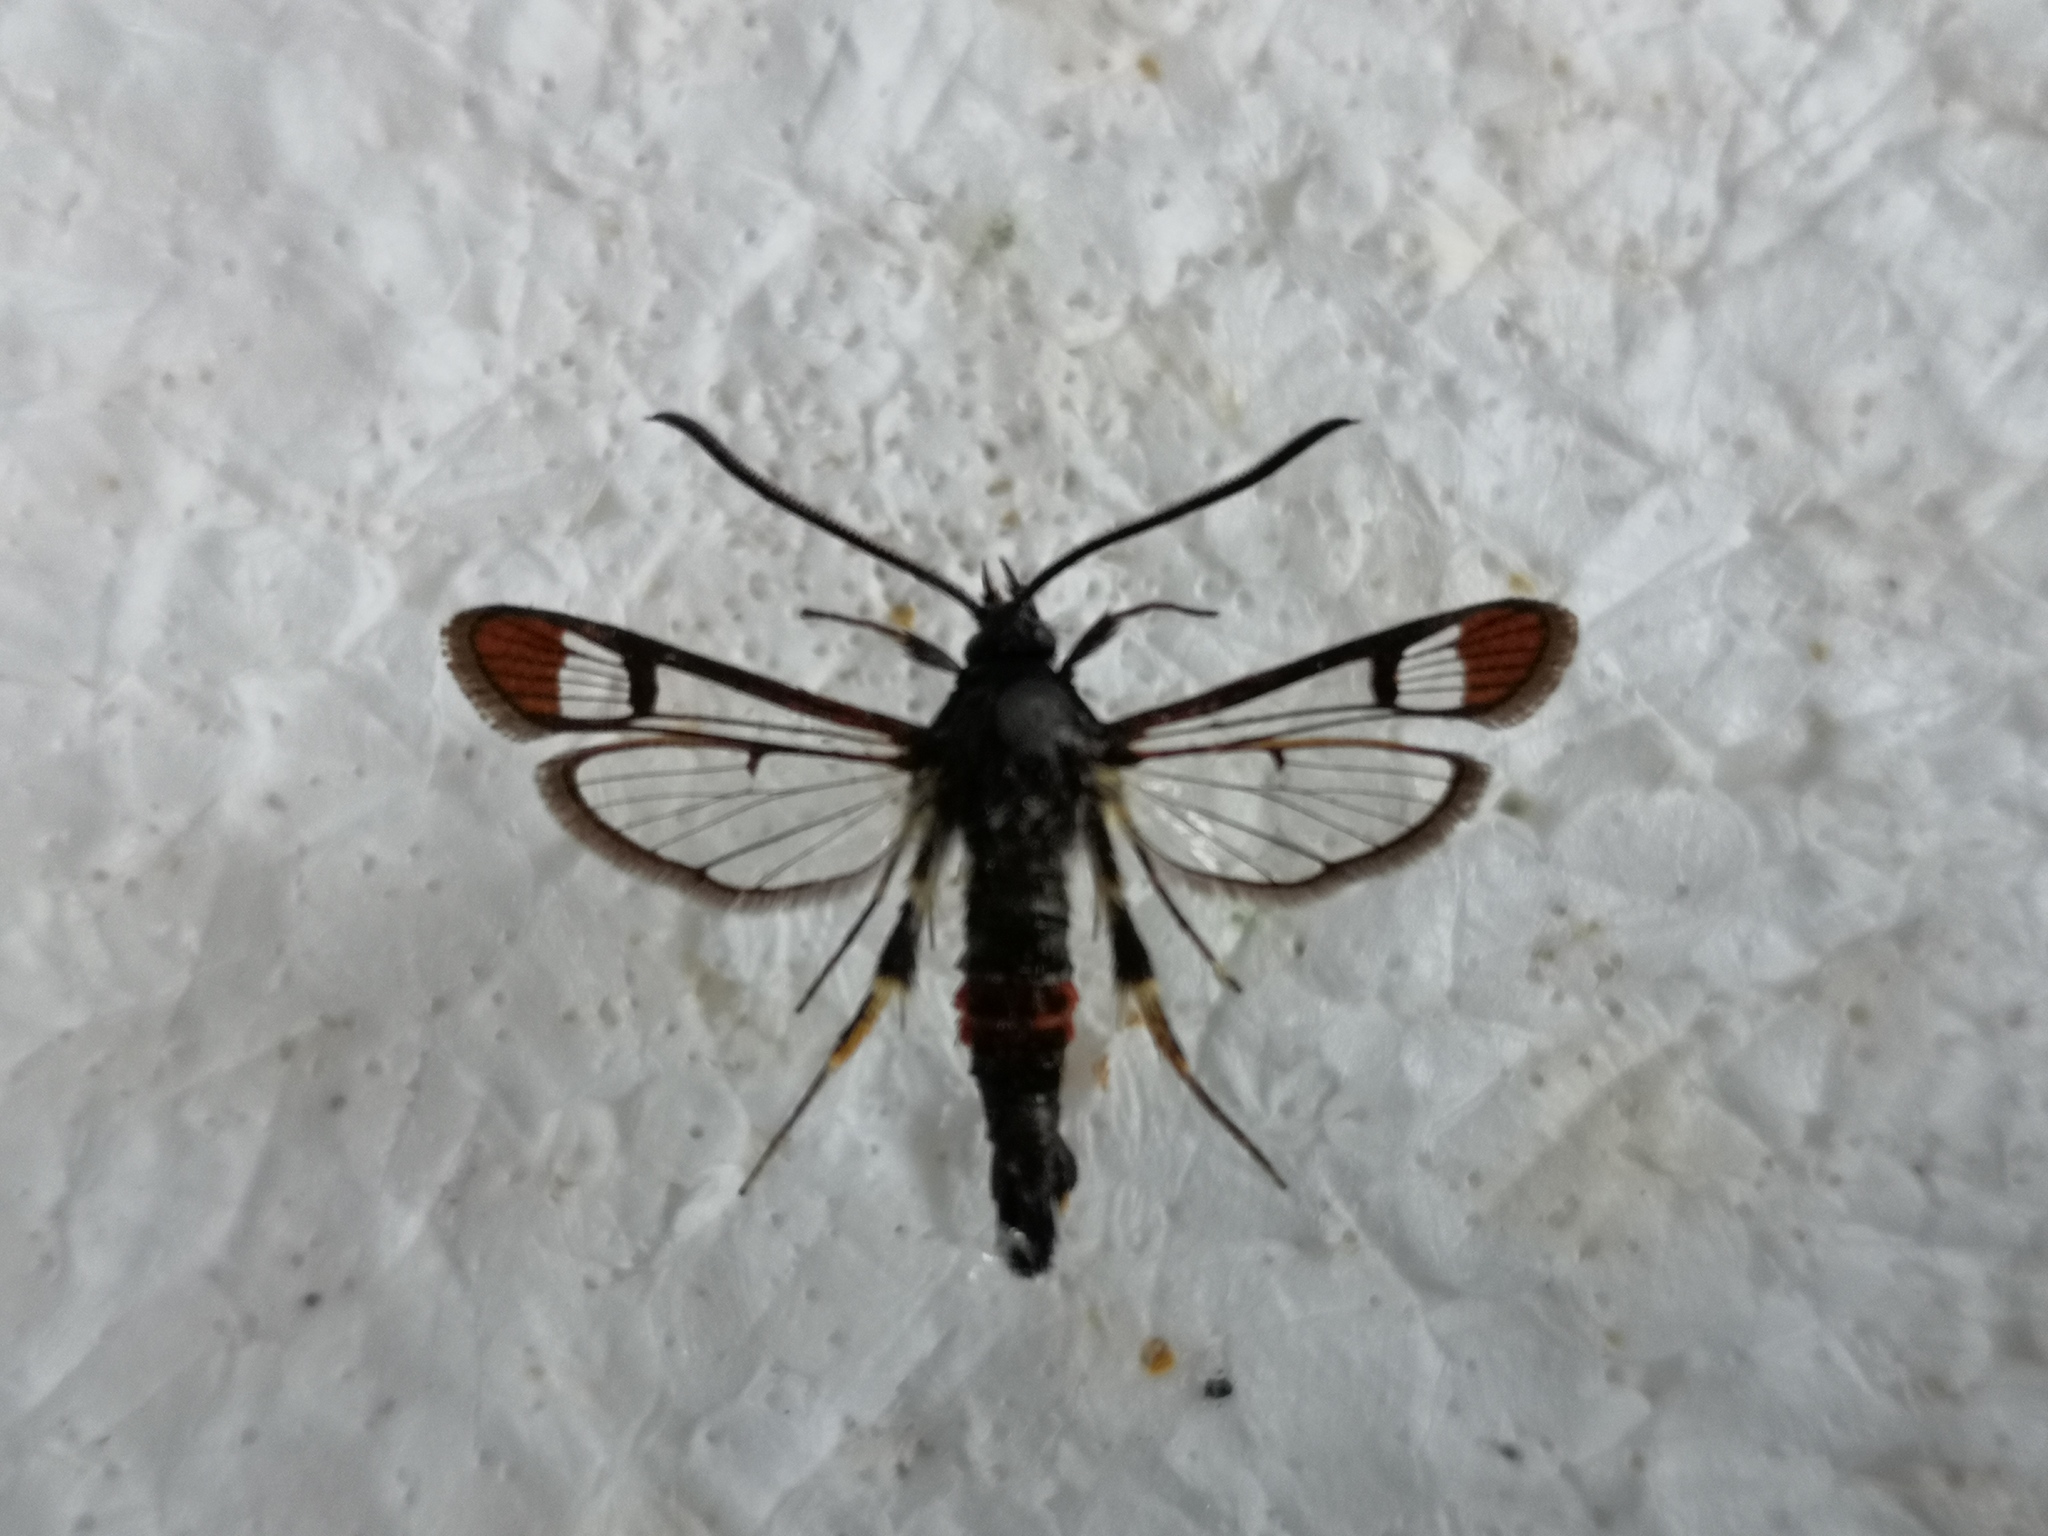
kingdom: Animalia
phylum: Arthropoda
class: Insecta
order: Lepidoptera
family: Sesiidae
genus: Synanthedon
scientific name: Synanthedon formicaeformis
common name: Red-tipped clearwing
